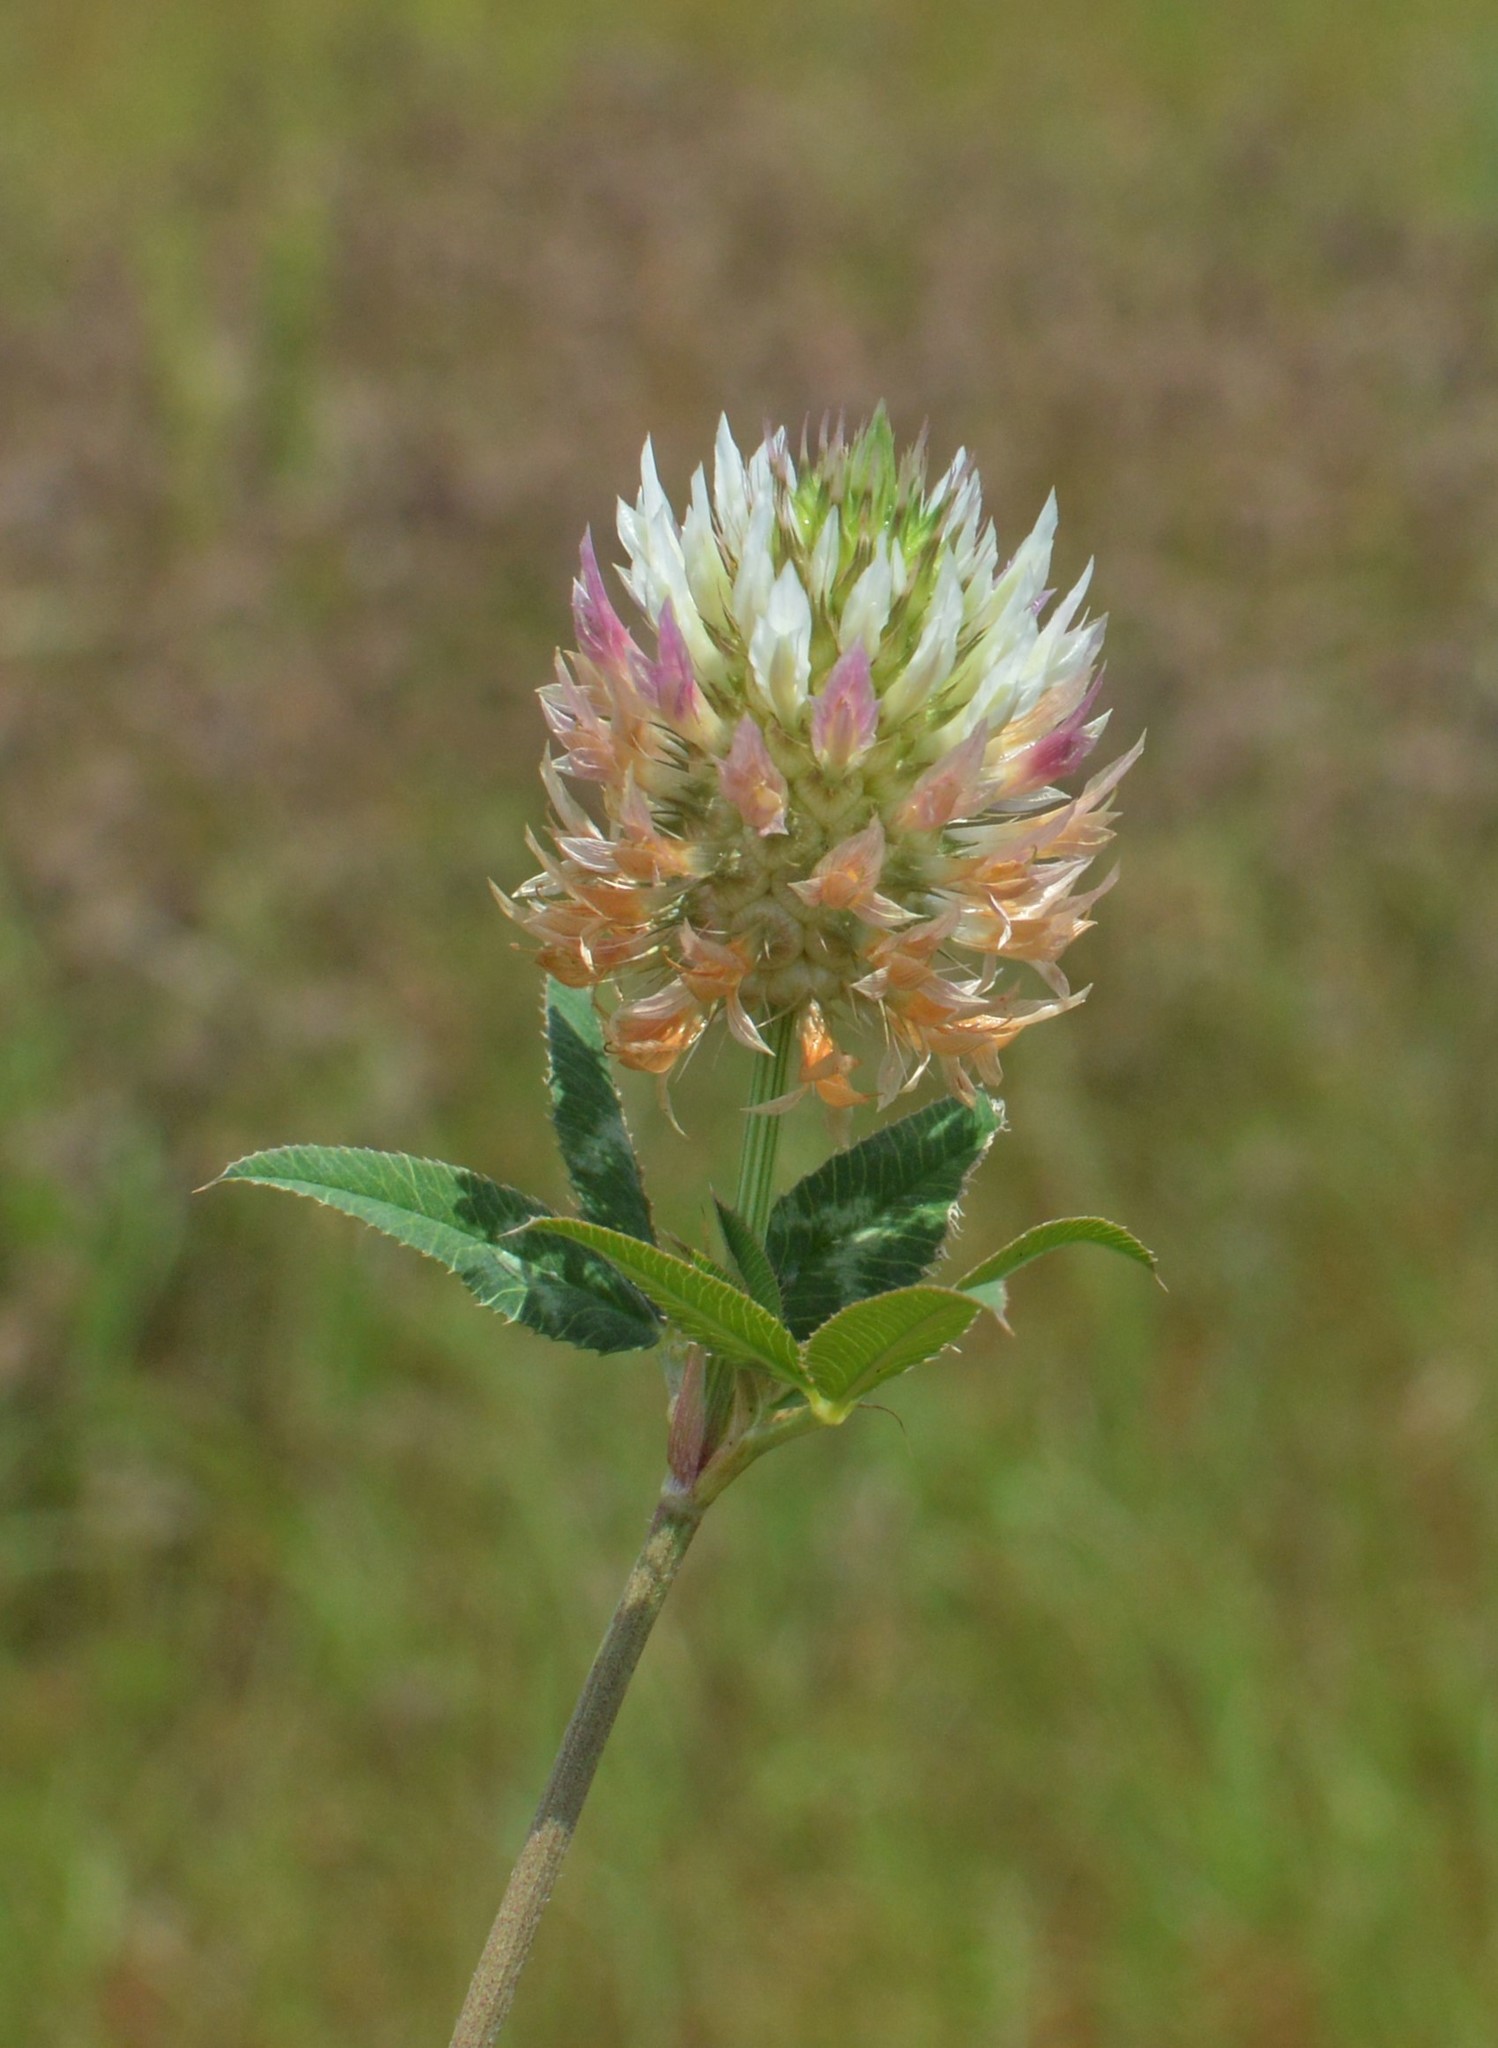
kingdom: Plantae
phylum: Tracheophyta
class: Magnoliopsida
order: Fabales
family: Fabaceae
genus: Trifolium
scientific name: Trifolium vesiculosum
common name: Arrowleaf clover
